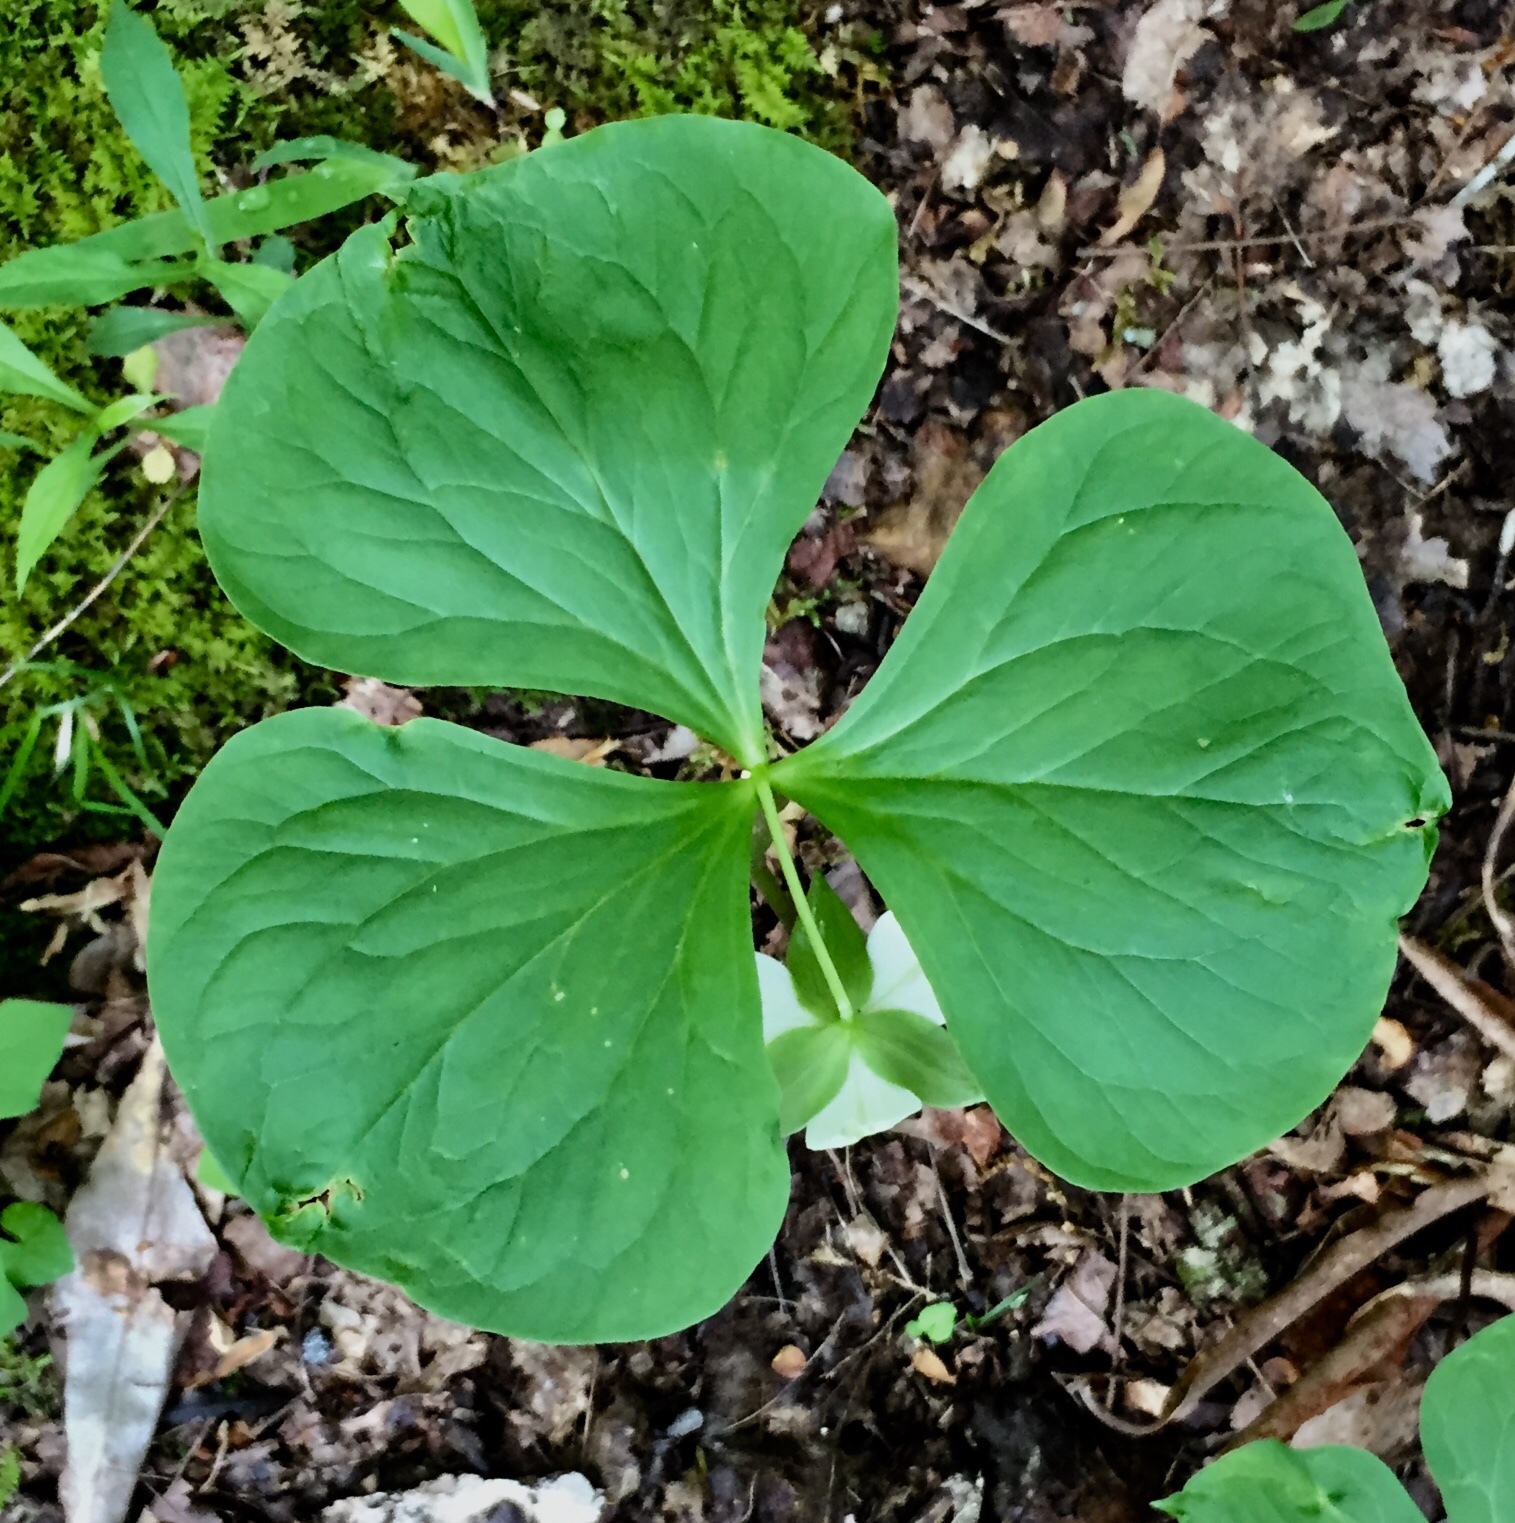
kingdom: Plantae
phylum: Tracheophyta
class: Liliopsida
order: Liliales
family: Melanthiaceae
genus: Trillium
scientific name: Trillium rugelii
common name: Ill-scented trillium
